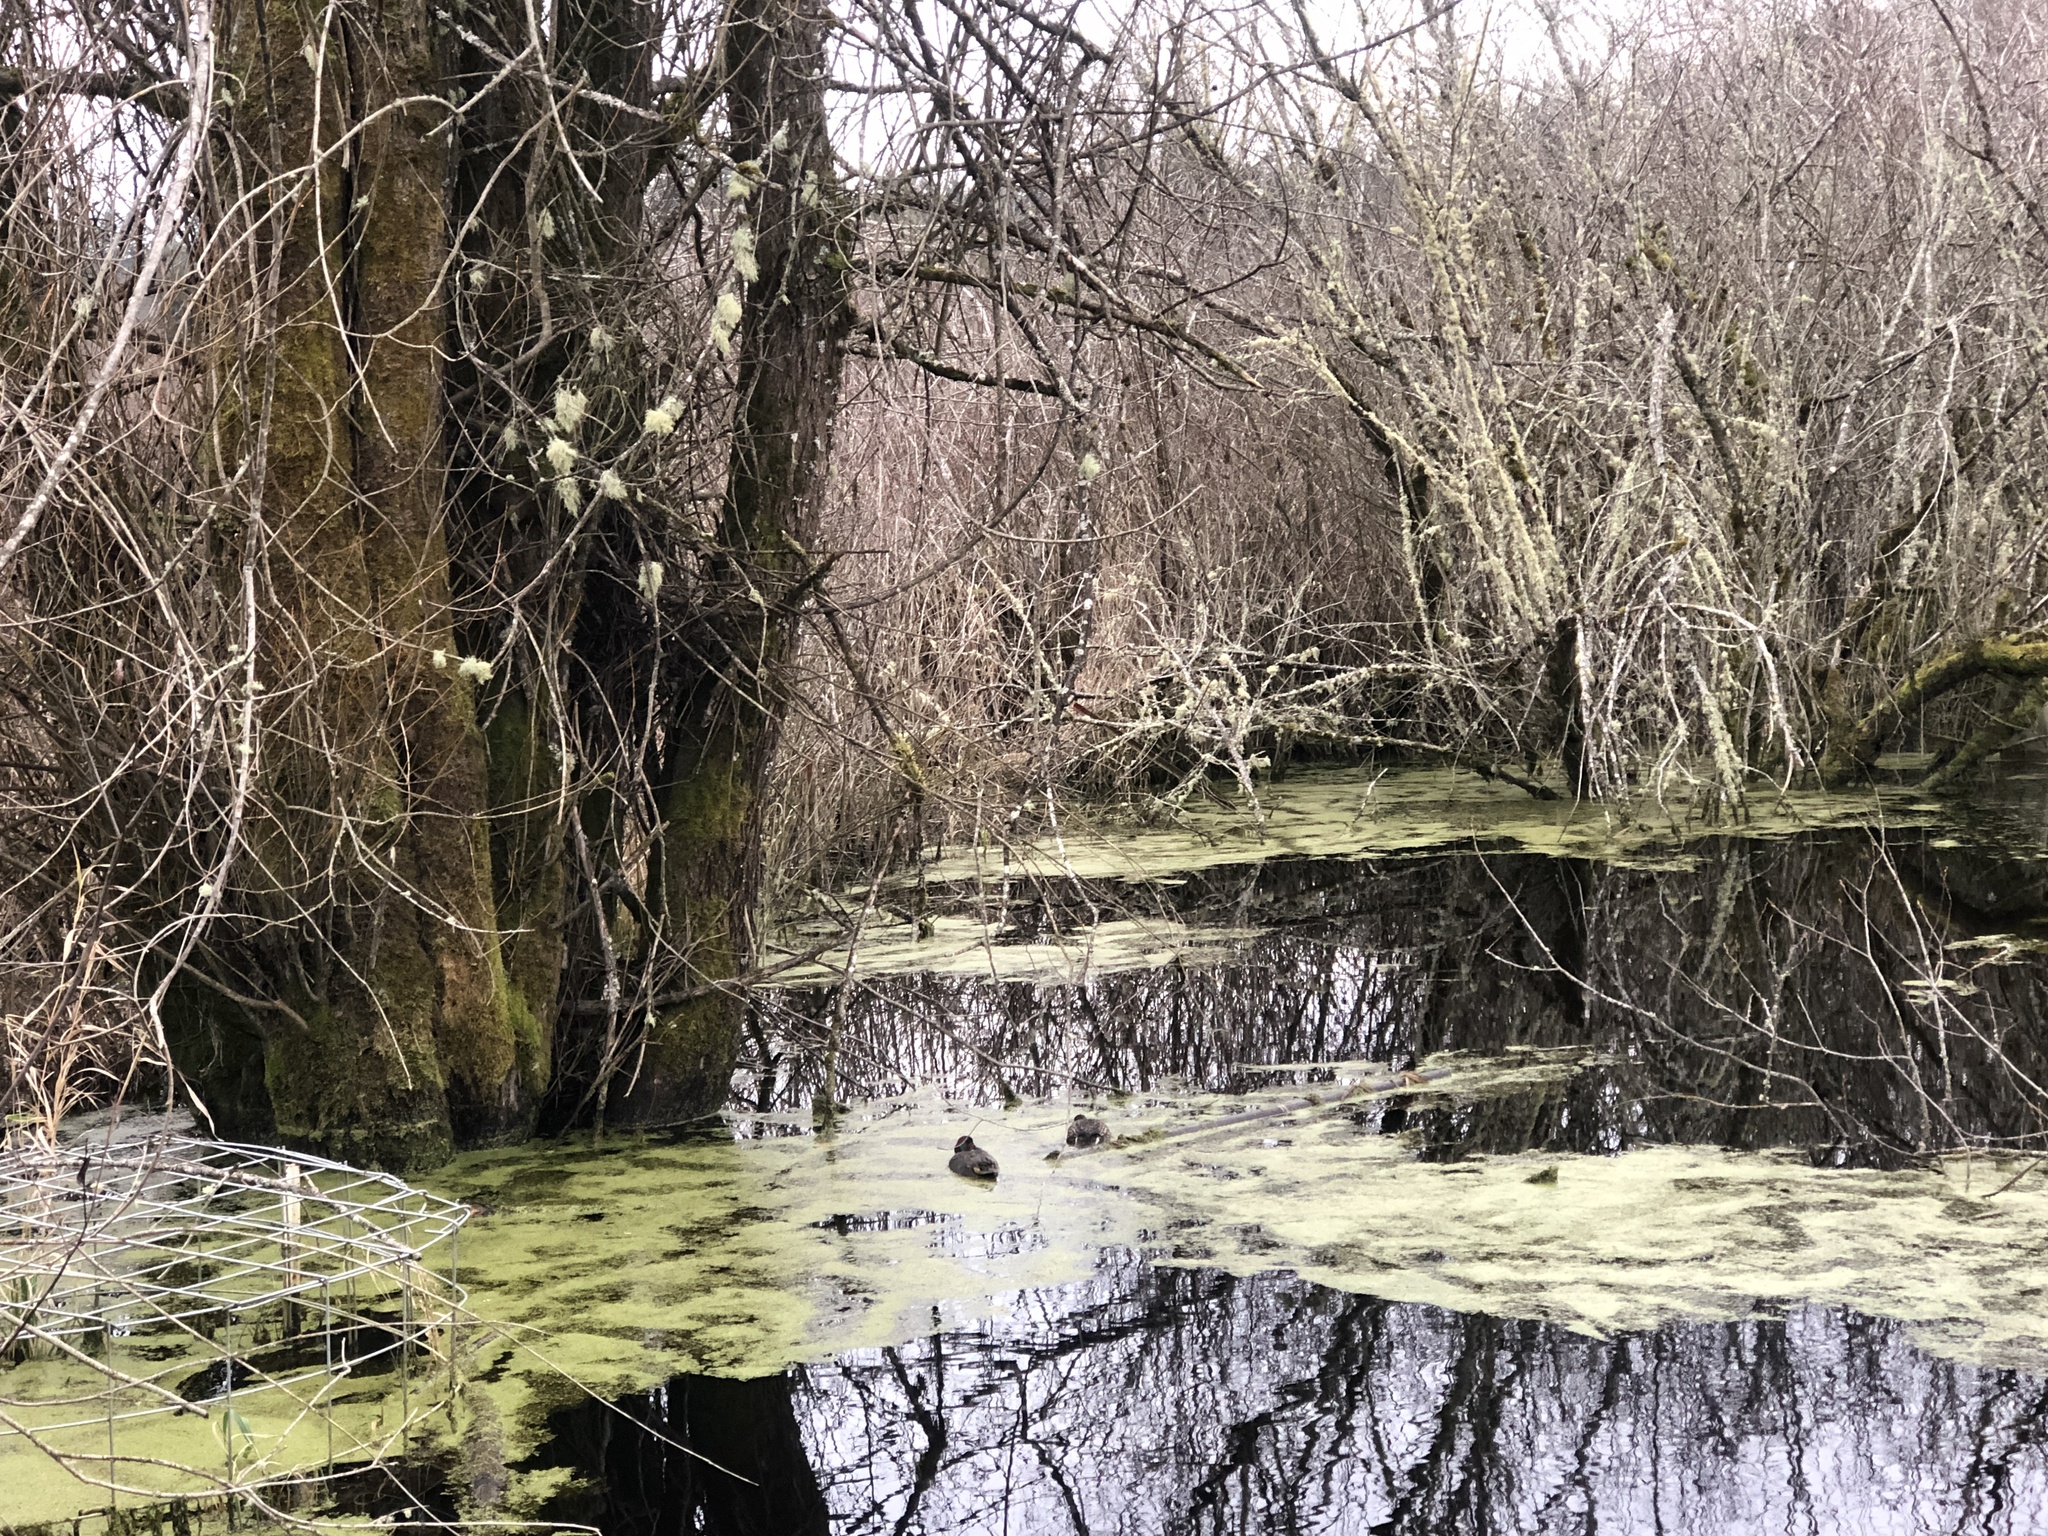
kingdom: Animalia
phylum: Chordata
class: Aves
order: Anseriformes
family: Anatidae
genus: Anas
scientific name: Anas crecca
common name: Eurasian teal
